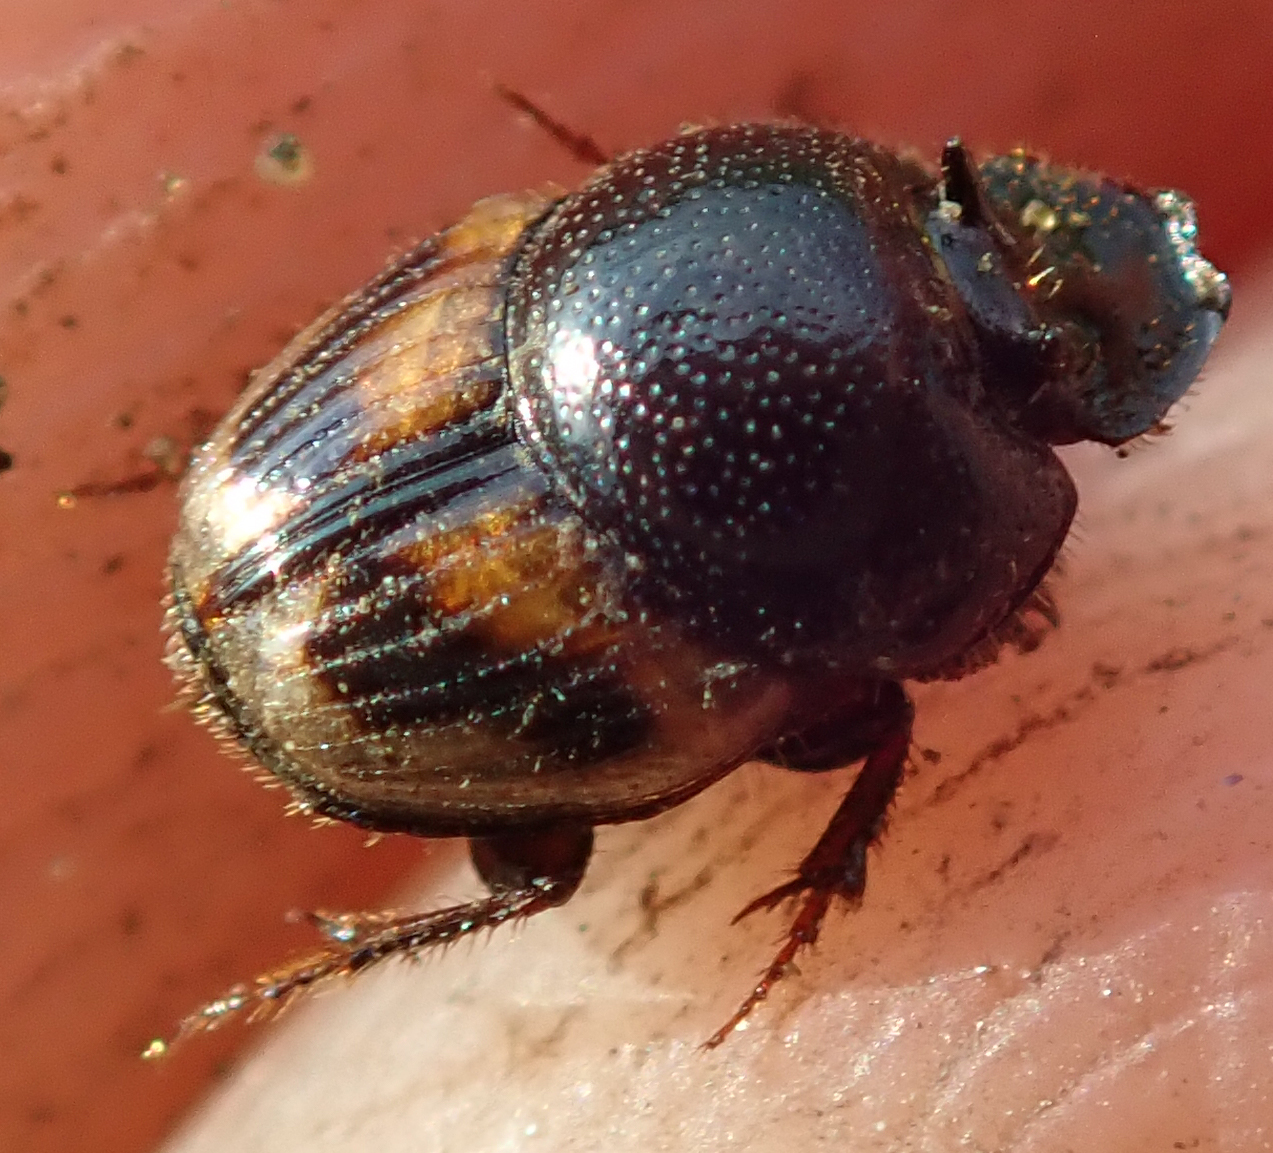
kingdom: Animalia
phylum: Arthropoda
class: Insecta
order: Coleoptera
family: Scarabaeidae
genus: Onthophagus
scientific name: Onthophagus flavolimbatus
